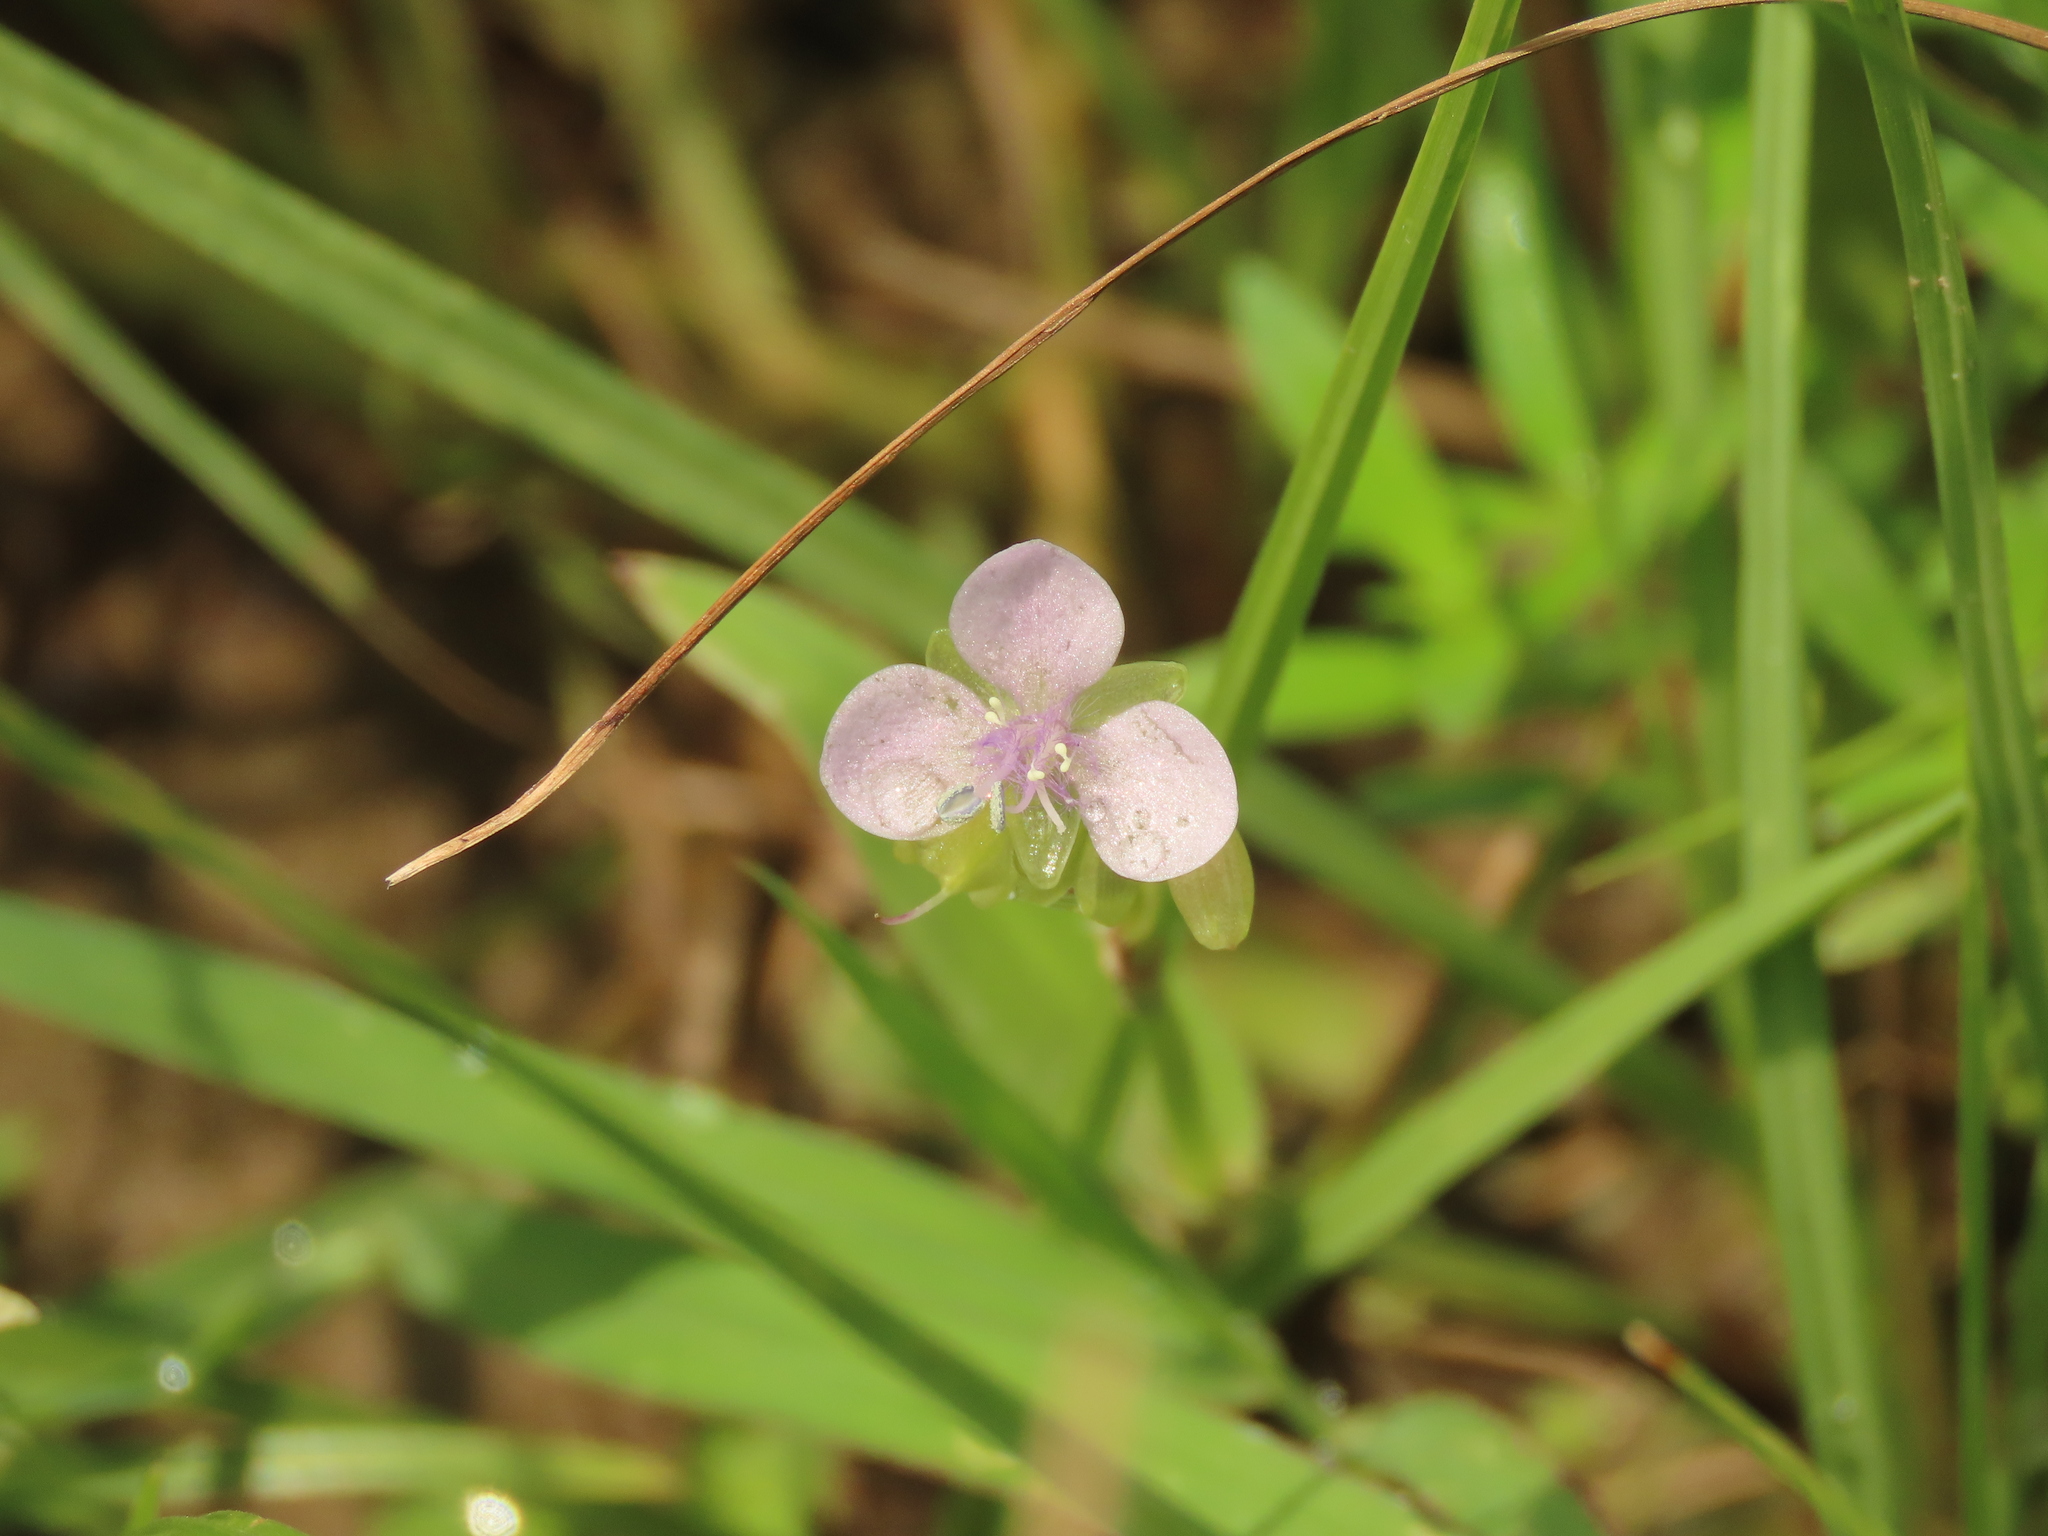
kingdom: Plantae
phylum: Tracheophyta
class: Liliopsida
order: Commelinales
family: Commelinaceae
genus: Murdannia
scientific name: Murdannia loriformis
